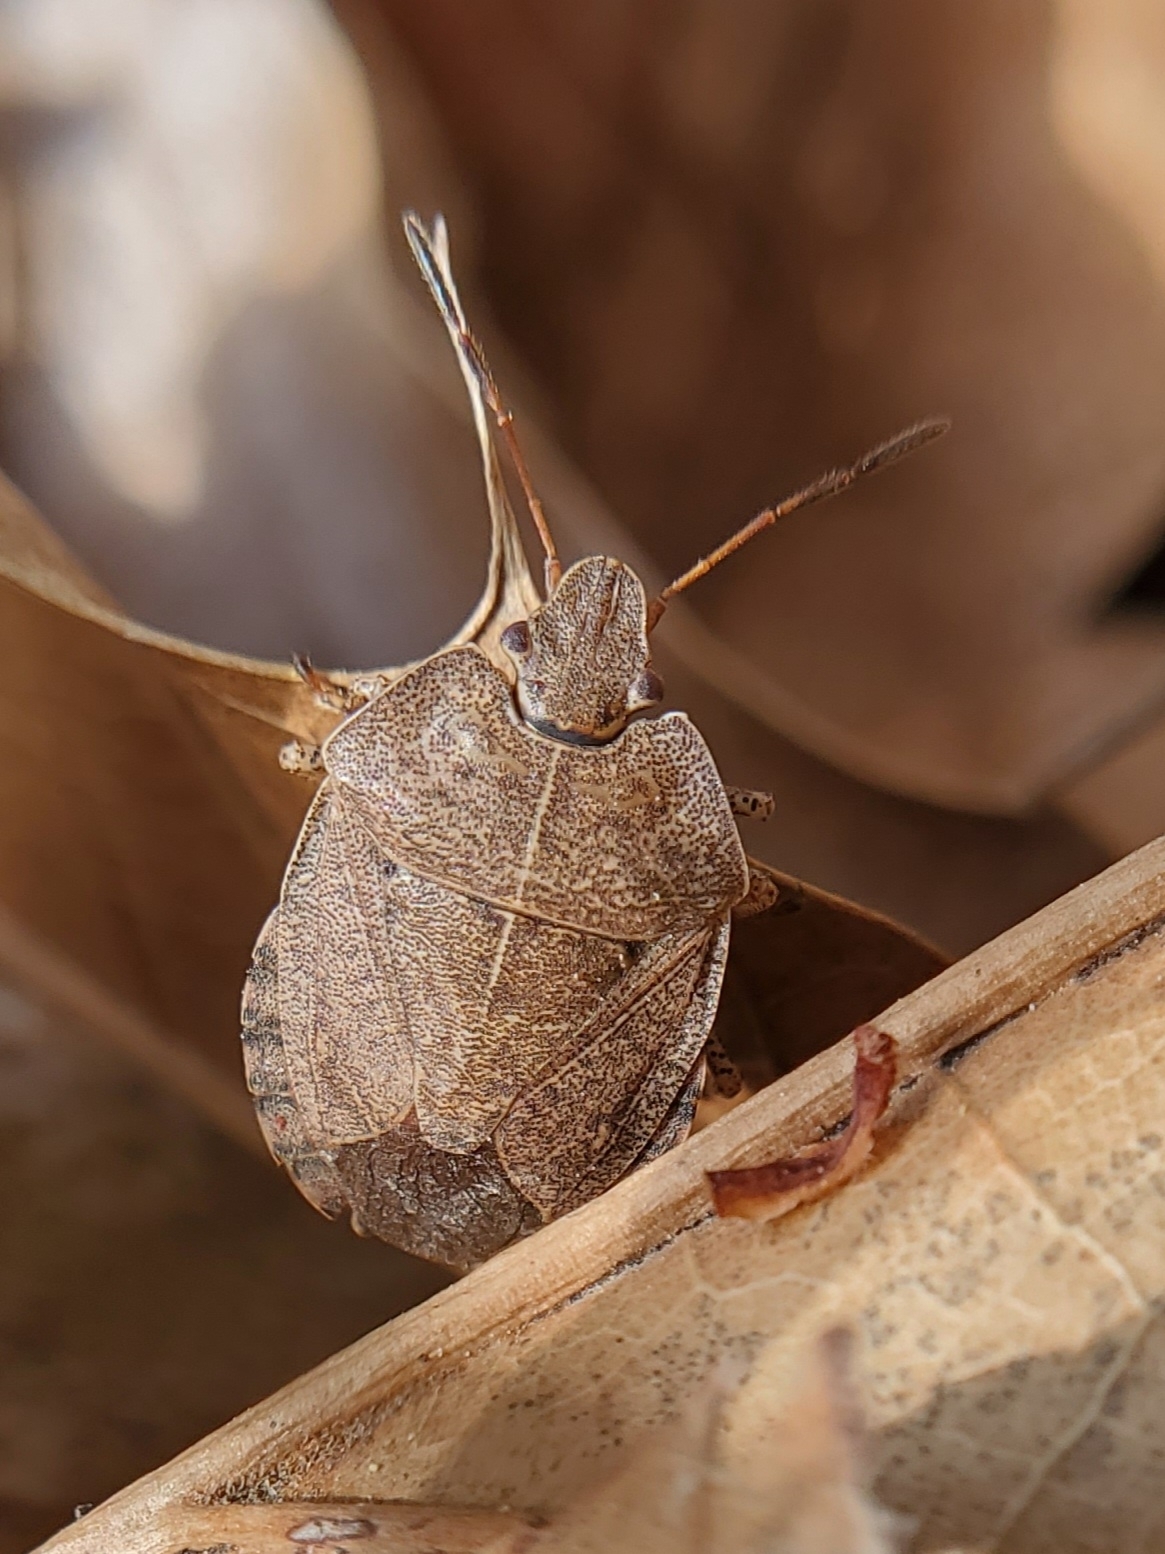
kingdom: Animalia
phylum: Arthropoda
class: Insecta
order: Hemiptera
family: Pentatomidae
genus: Menecles
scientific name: Menecles insertus
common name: Elf shoe stink bug
